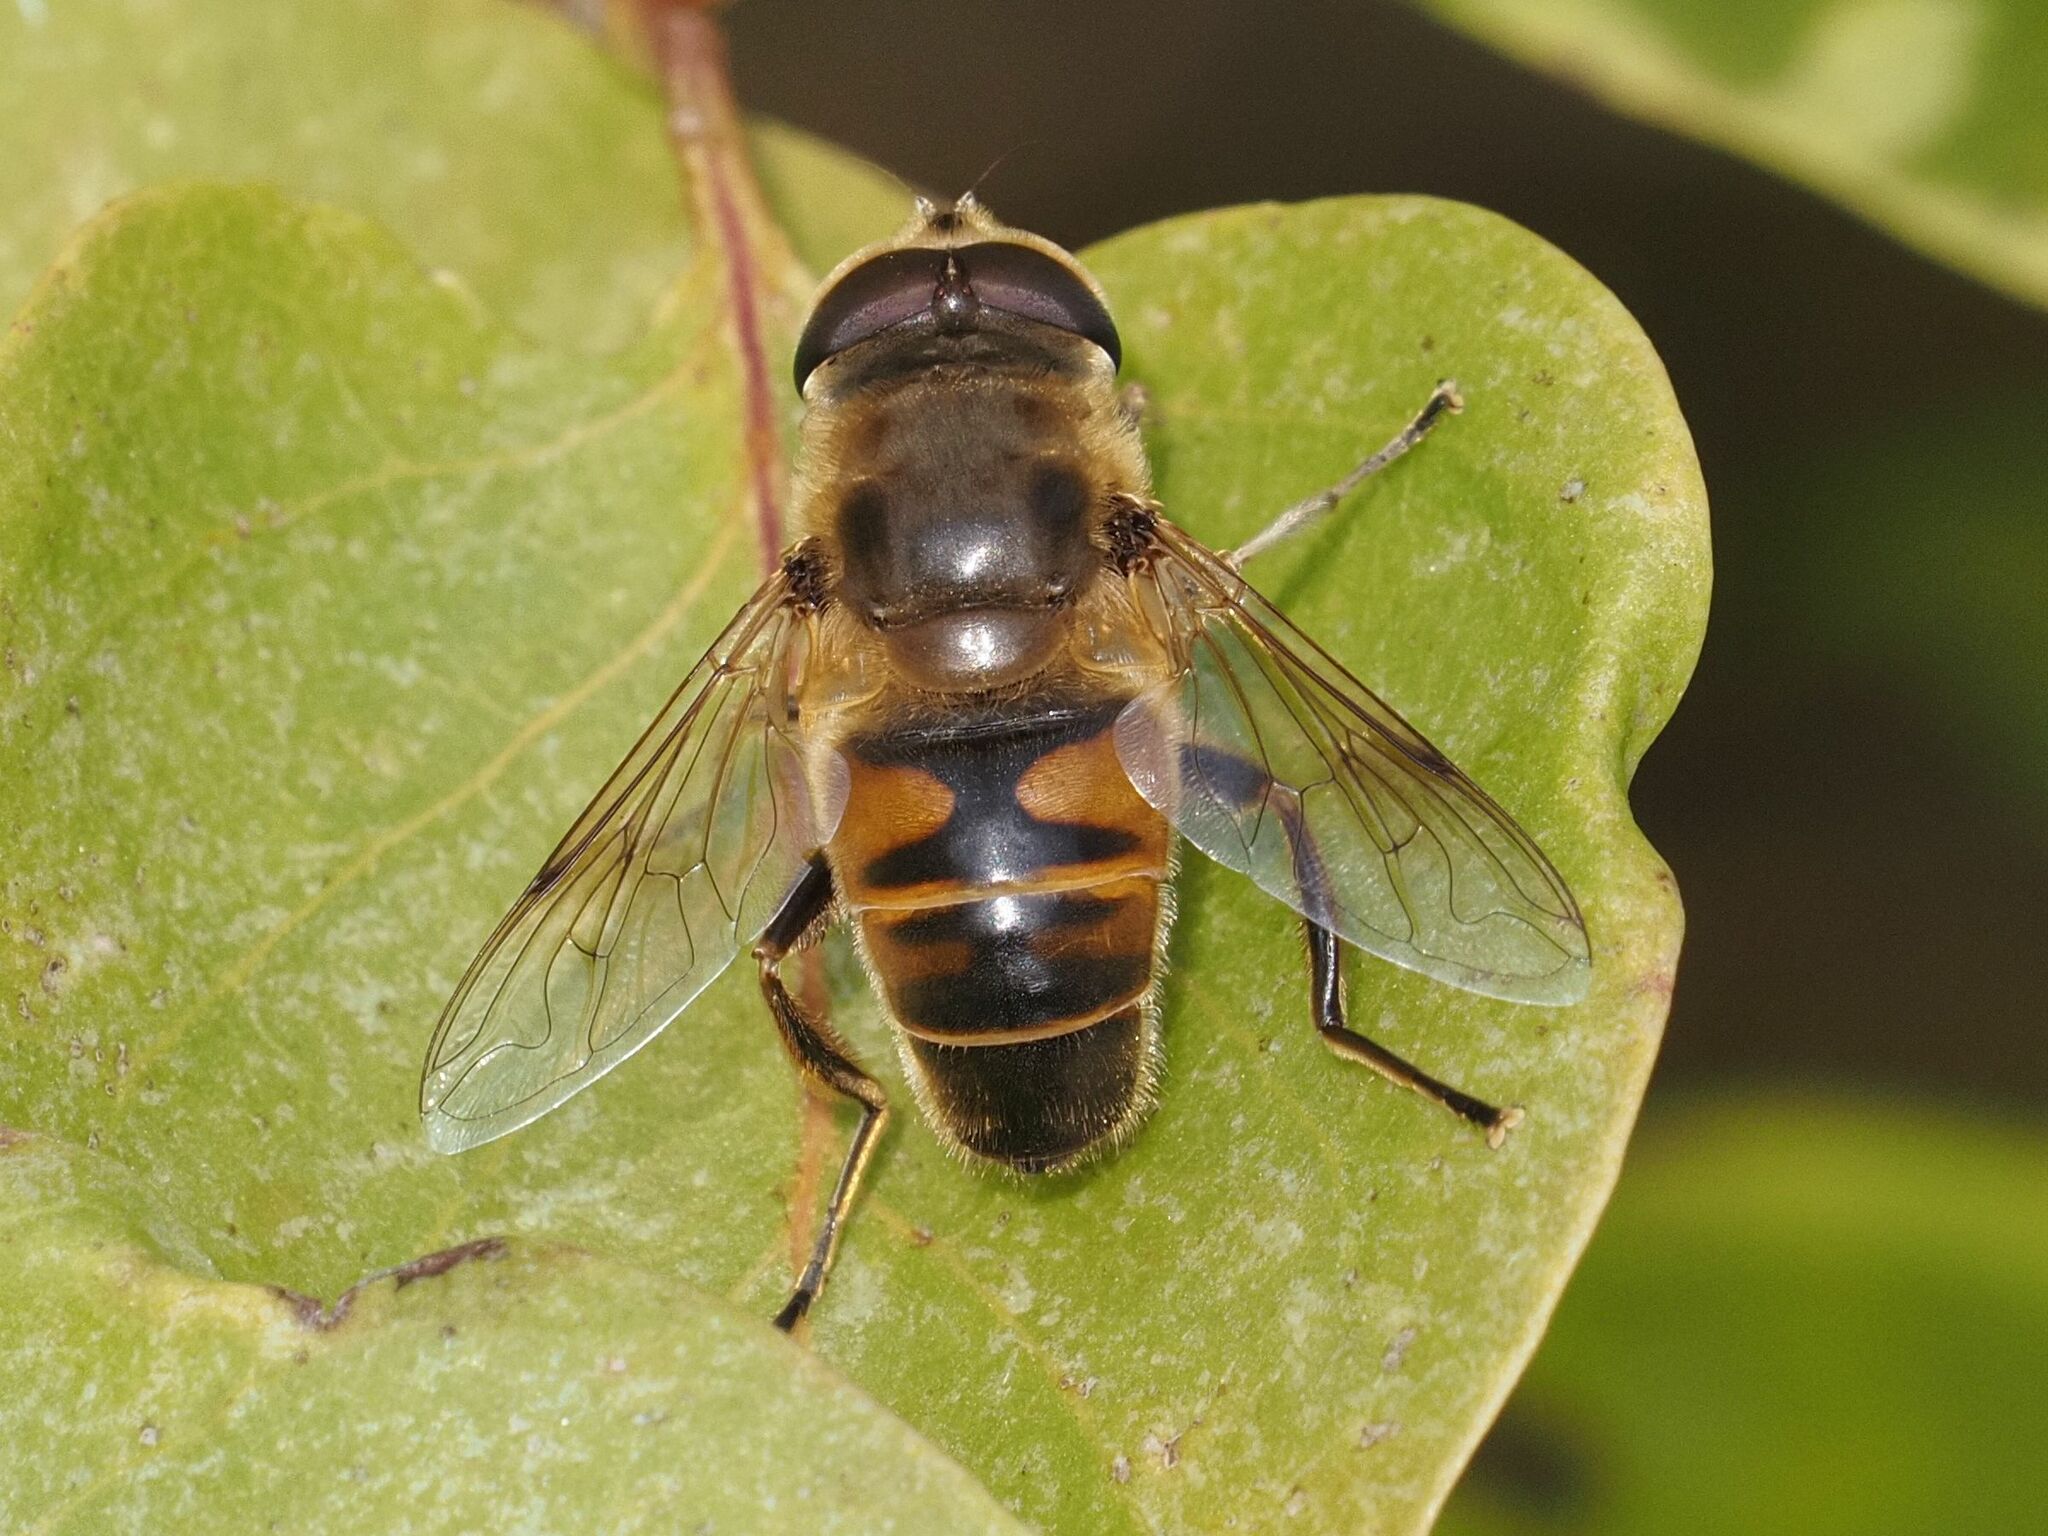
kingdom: Animalia
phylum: Arthropoda
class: Insecta
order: Diptera
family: Syrphidae
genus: Eristalis
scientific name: Eristalis tenax
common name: Drone fly
